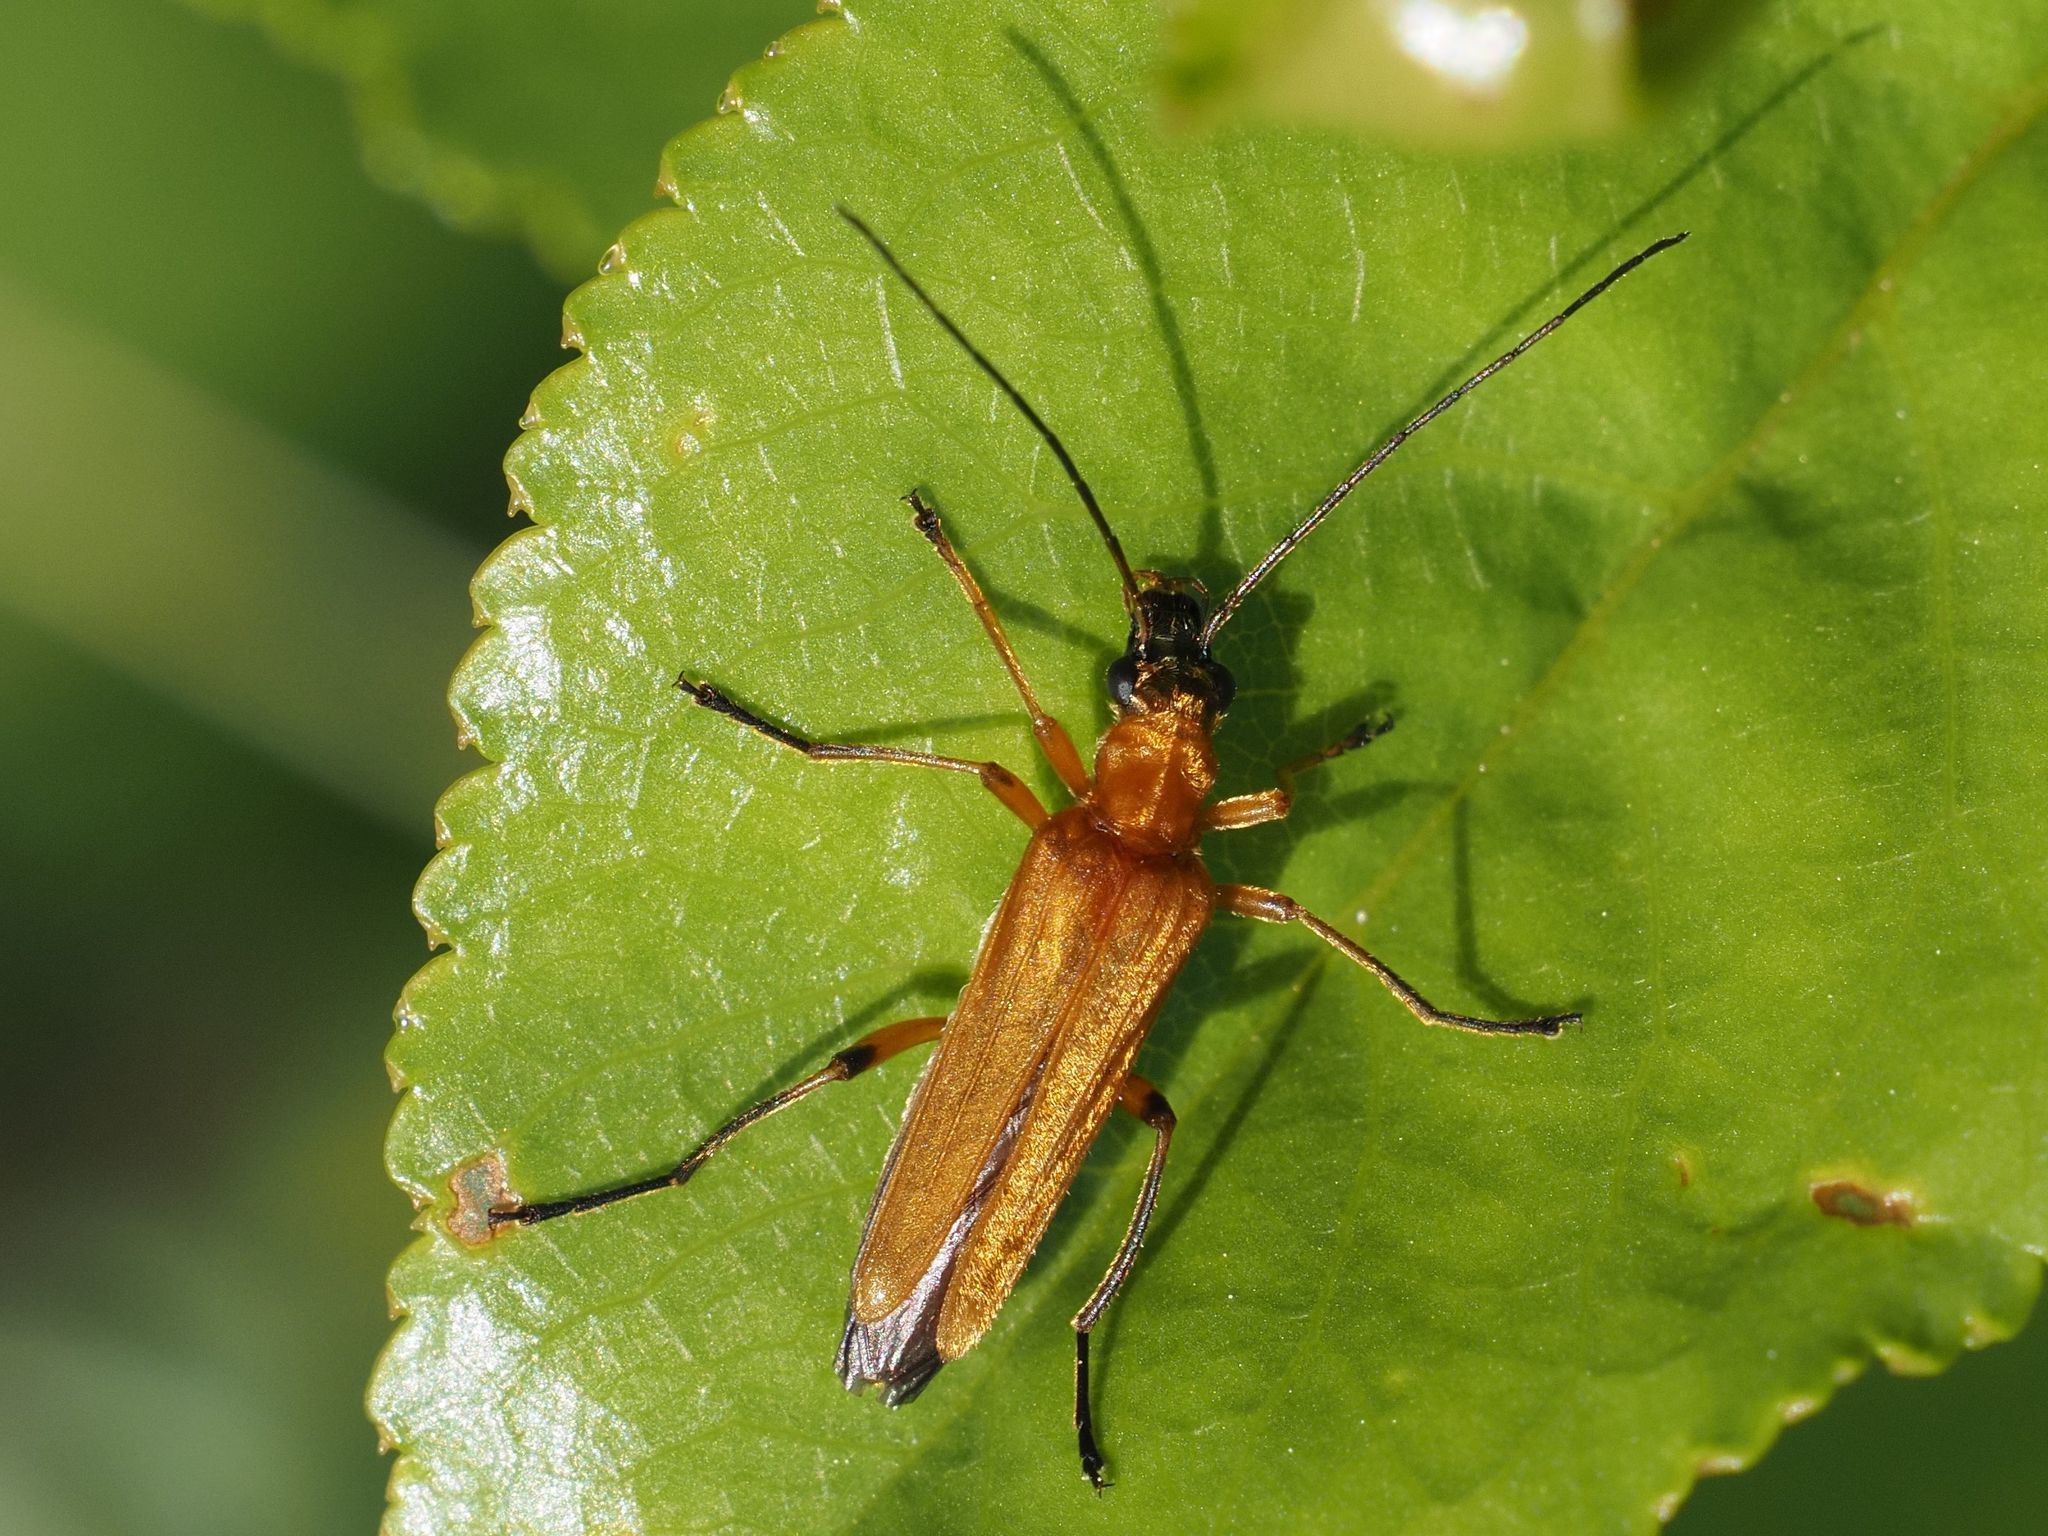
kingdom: Animalia
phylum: Arthropoda
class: Insecta
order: Coleoptera
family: Oedemeridae
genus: Oedemera
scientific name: Oedemera podagrariae
